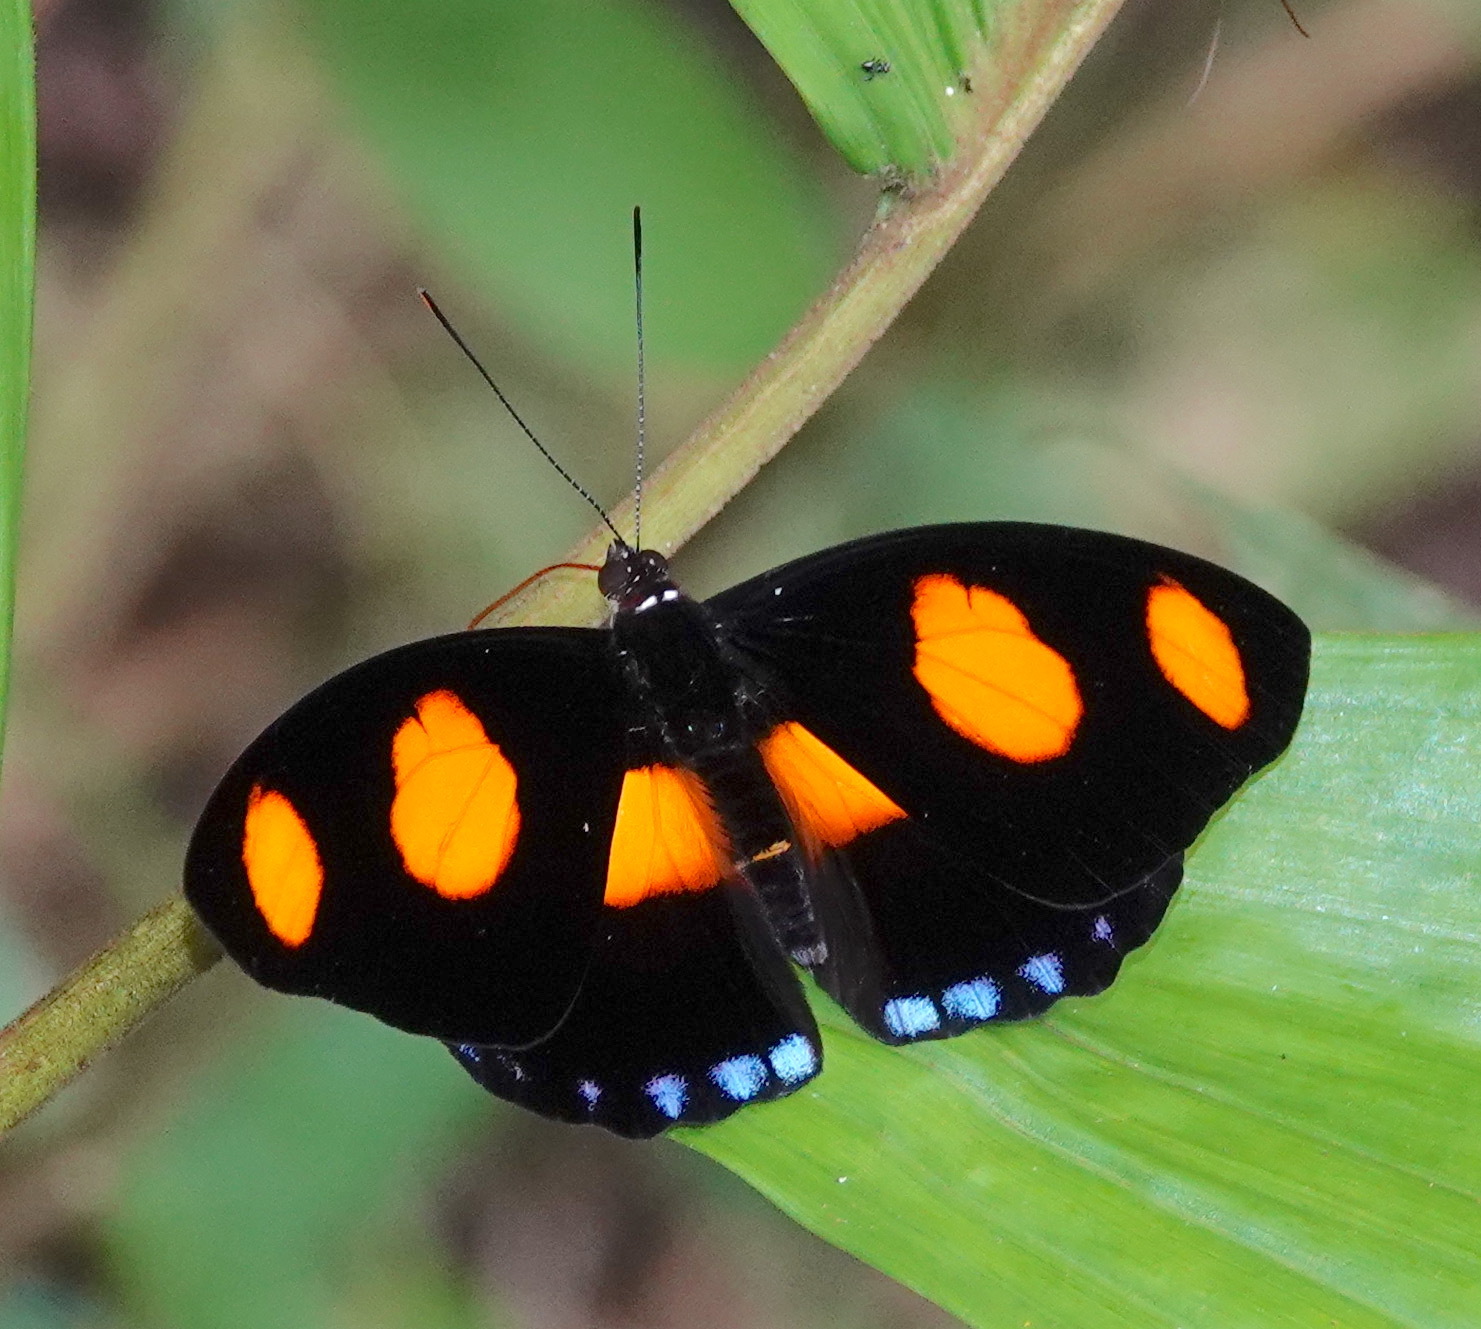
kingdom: Animalia
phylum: Arthropoda
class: Insecta
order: Lepidoptera
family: Nymphalidae
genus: Catonephele
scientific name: Catonephele numilia
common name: Blue-frosted banner
